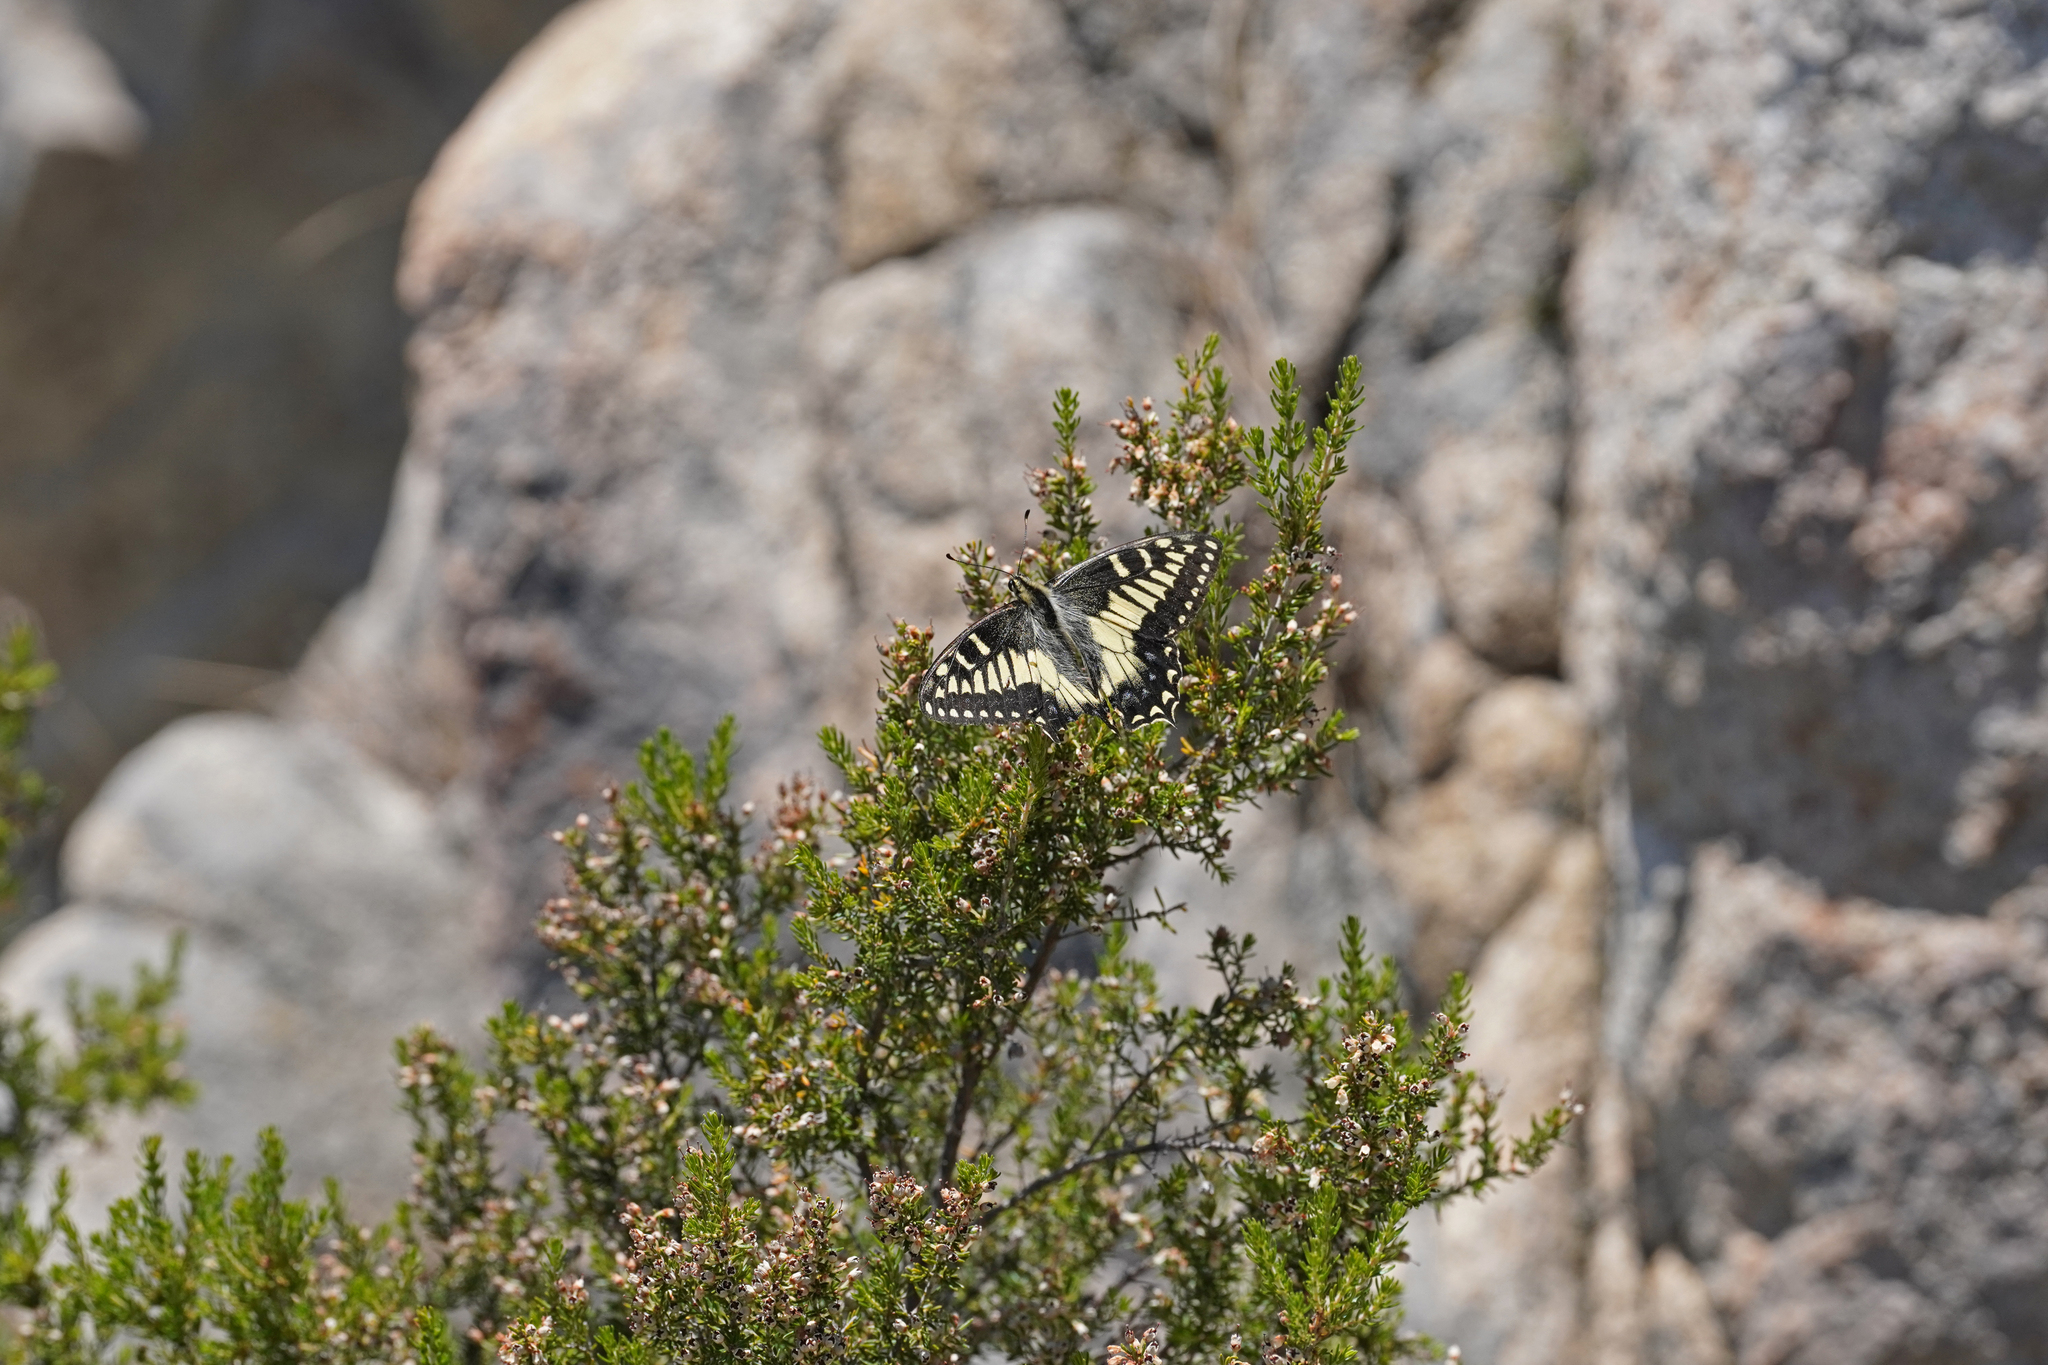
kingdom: Animalia
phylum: Arthropoda
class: Insecta
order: Lepidoptera
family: Papilionidae
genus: Papilio
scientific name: Papilio hospiton
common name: Corsican swallowtail
